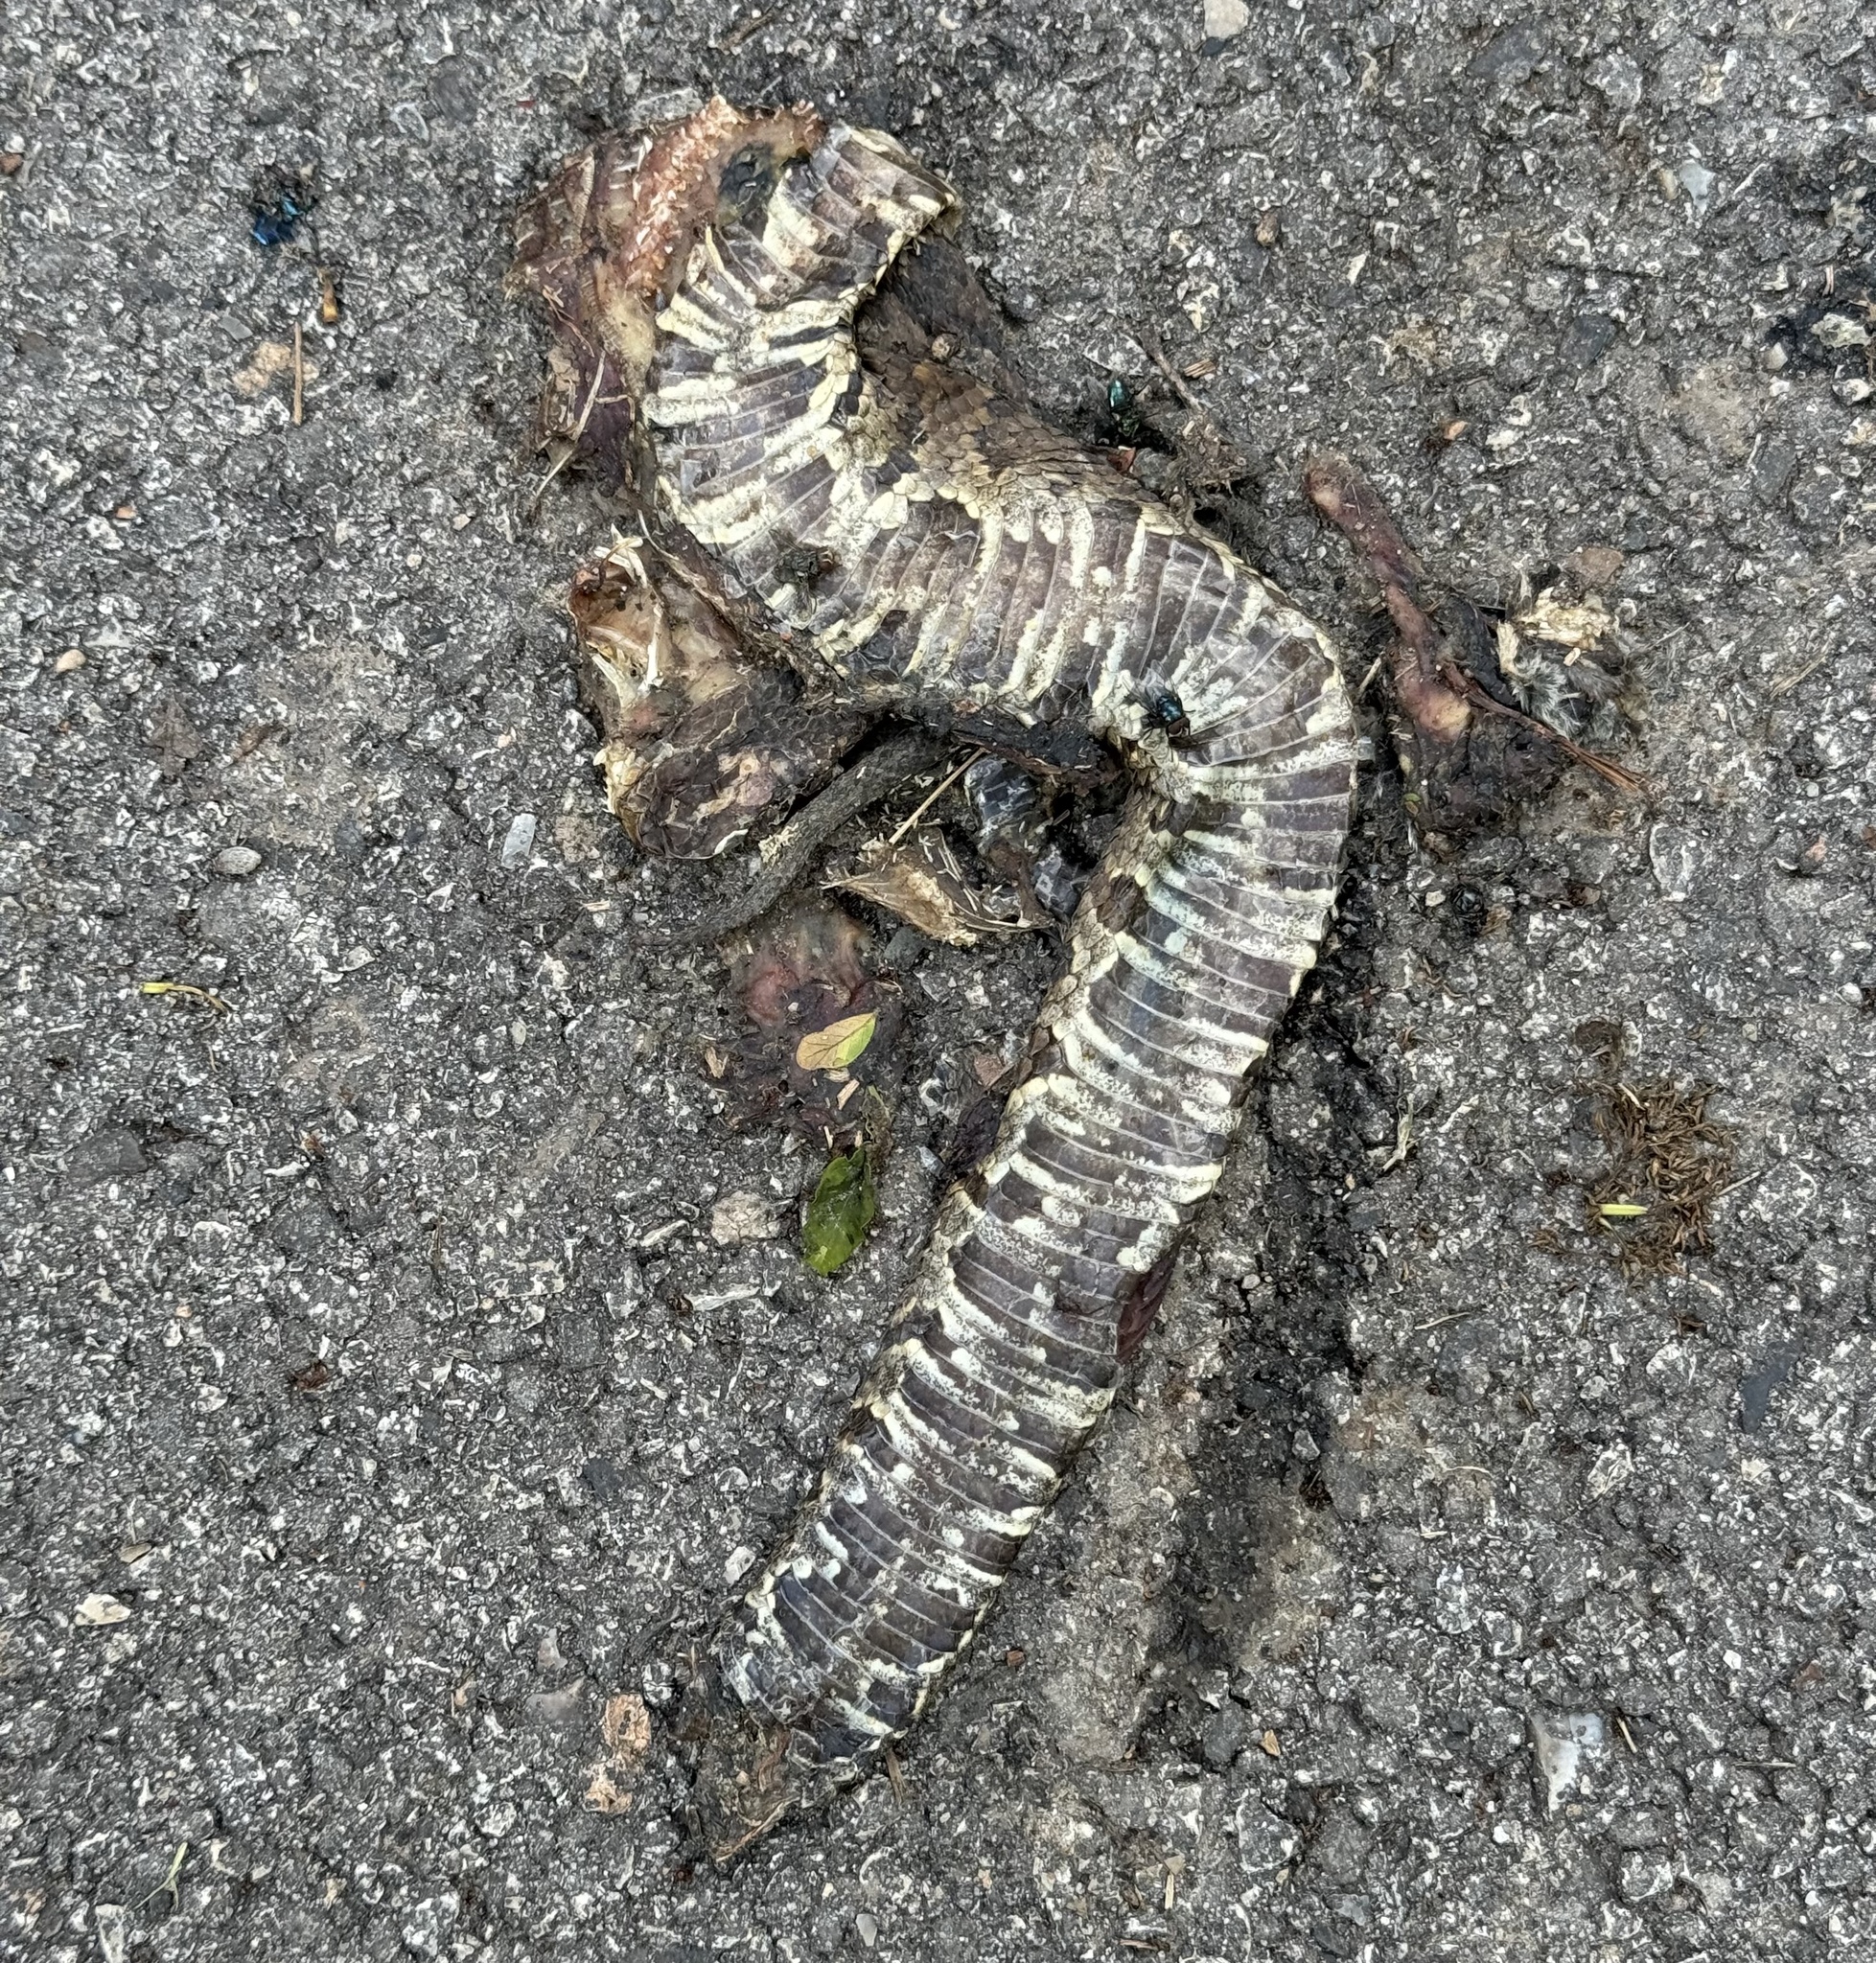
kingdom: Animalia
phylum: Chordata
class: Squamata
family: Viperidae
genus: Agkistrodon
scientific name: Agkistrodon piscivorus
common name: Cottonmouth
